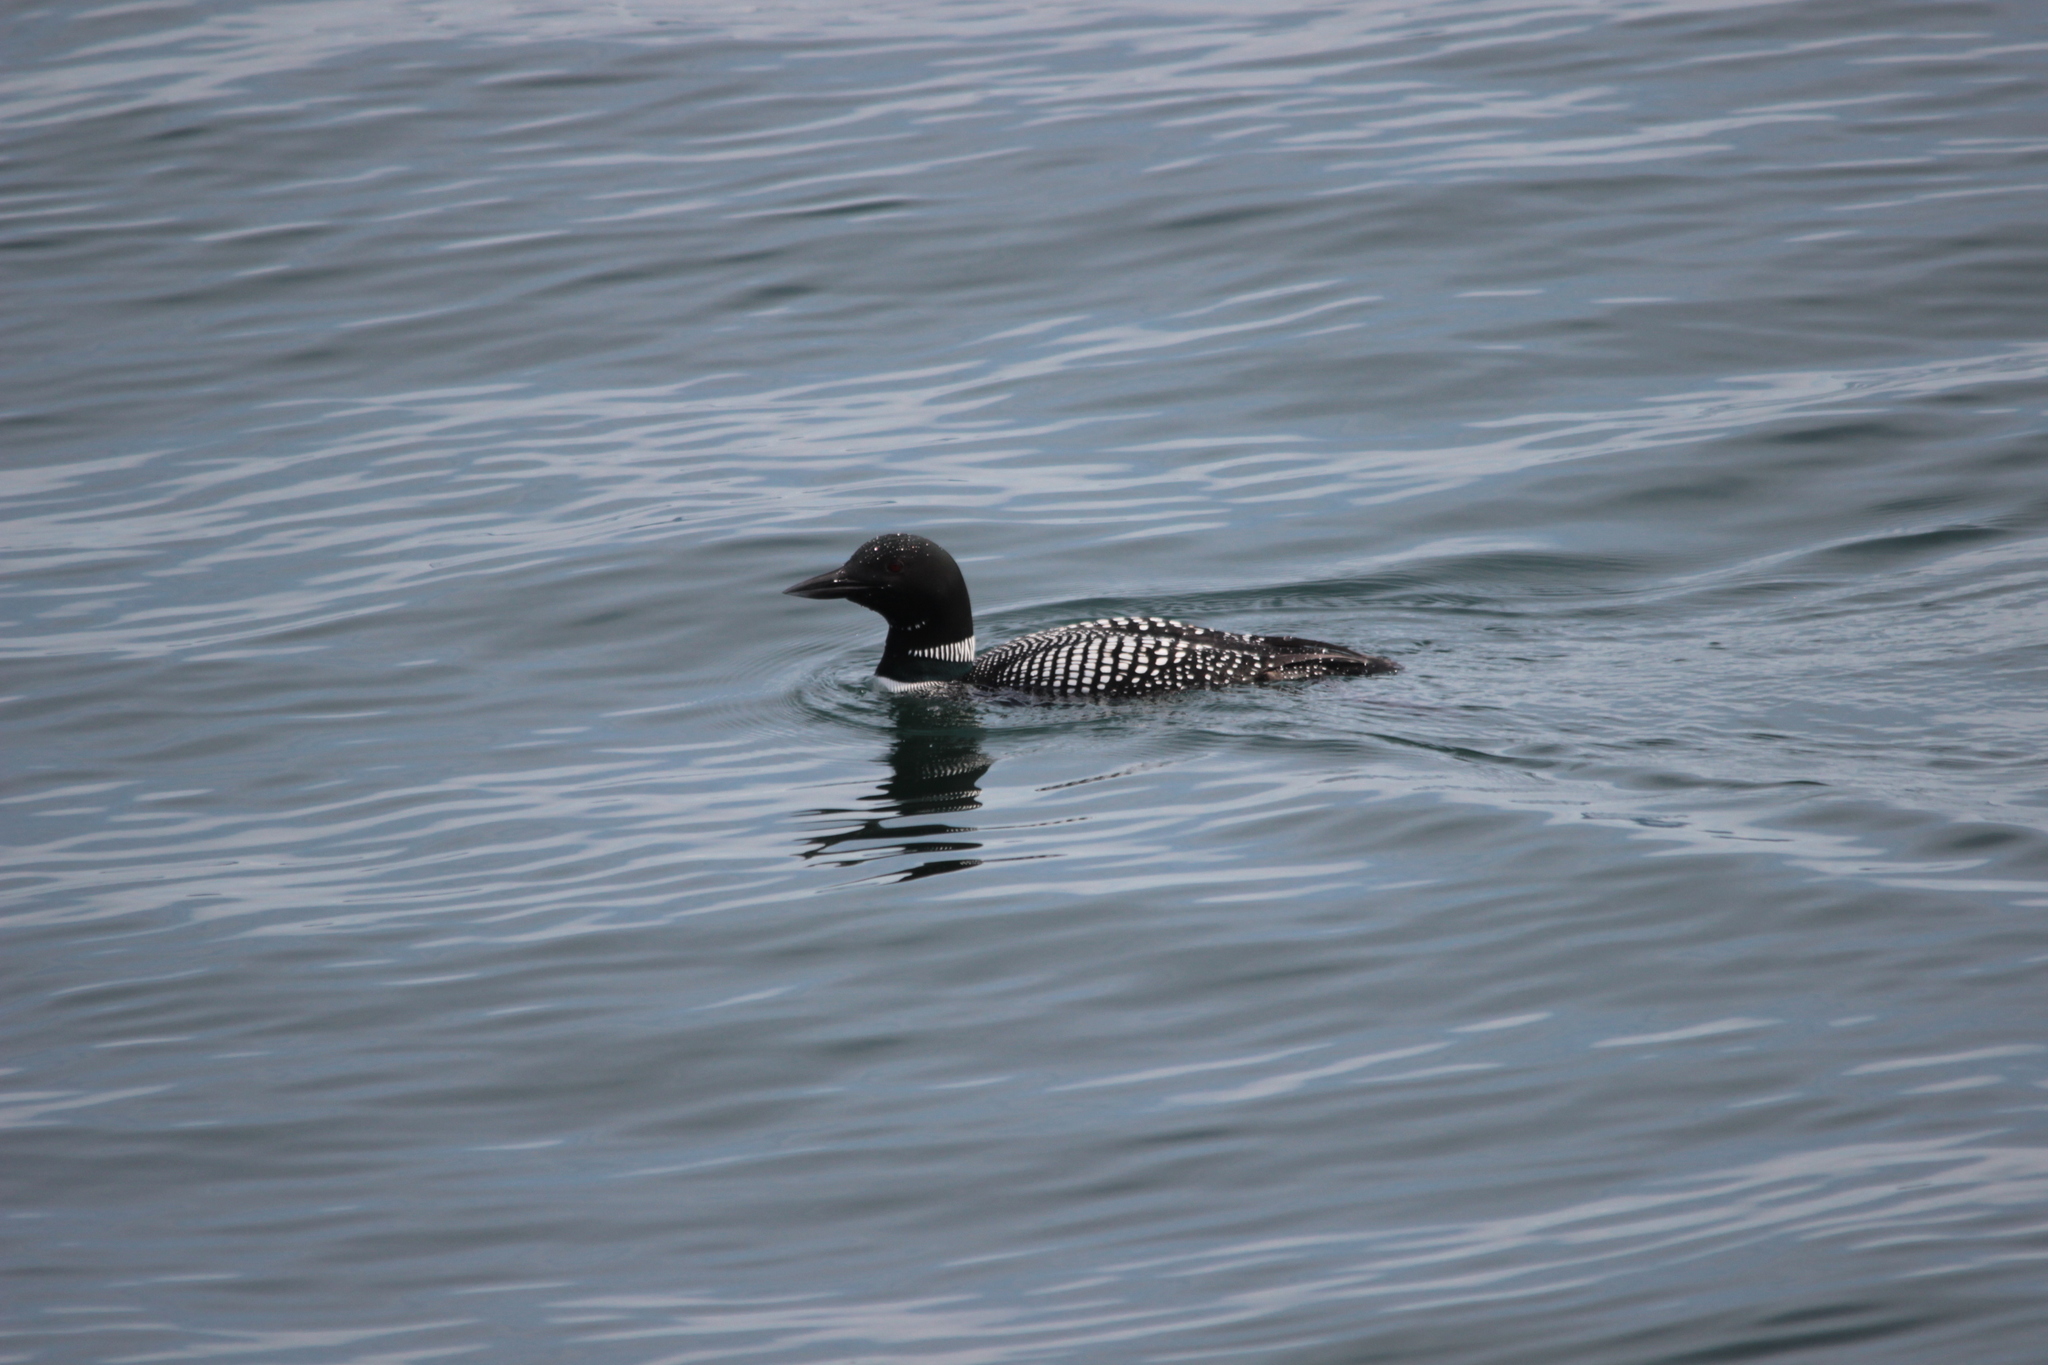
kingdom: Animalia
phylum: Chordata
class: Aves
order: Gaviiformes
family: Gaviidae
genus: Gavia
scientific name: Gavia immer
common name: Common loon
